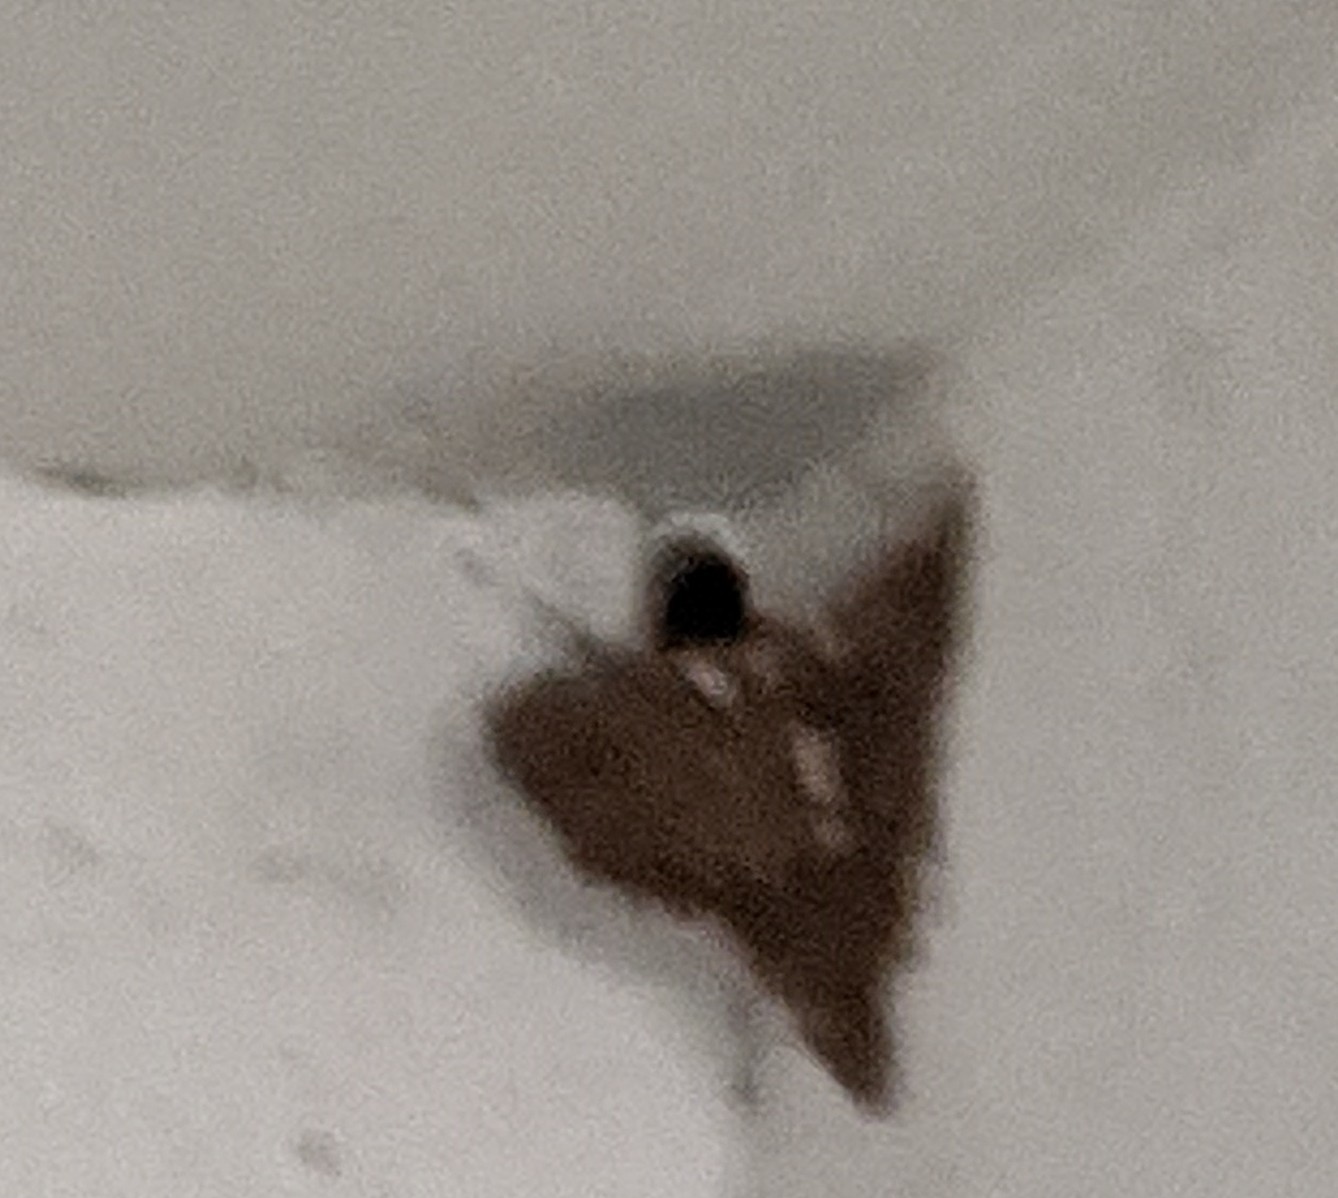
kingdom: Animalia
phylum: Chordata
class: Aves
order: Passeriformes
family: Hirundinidae
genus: Hirundo
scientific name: Hirundo rustica
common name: Barn swallow
